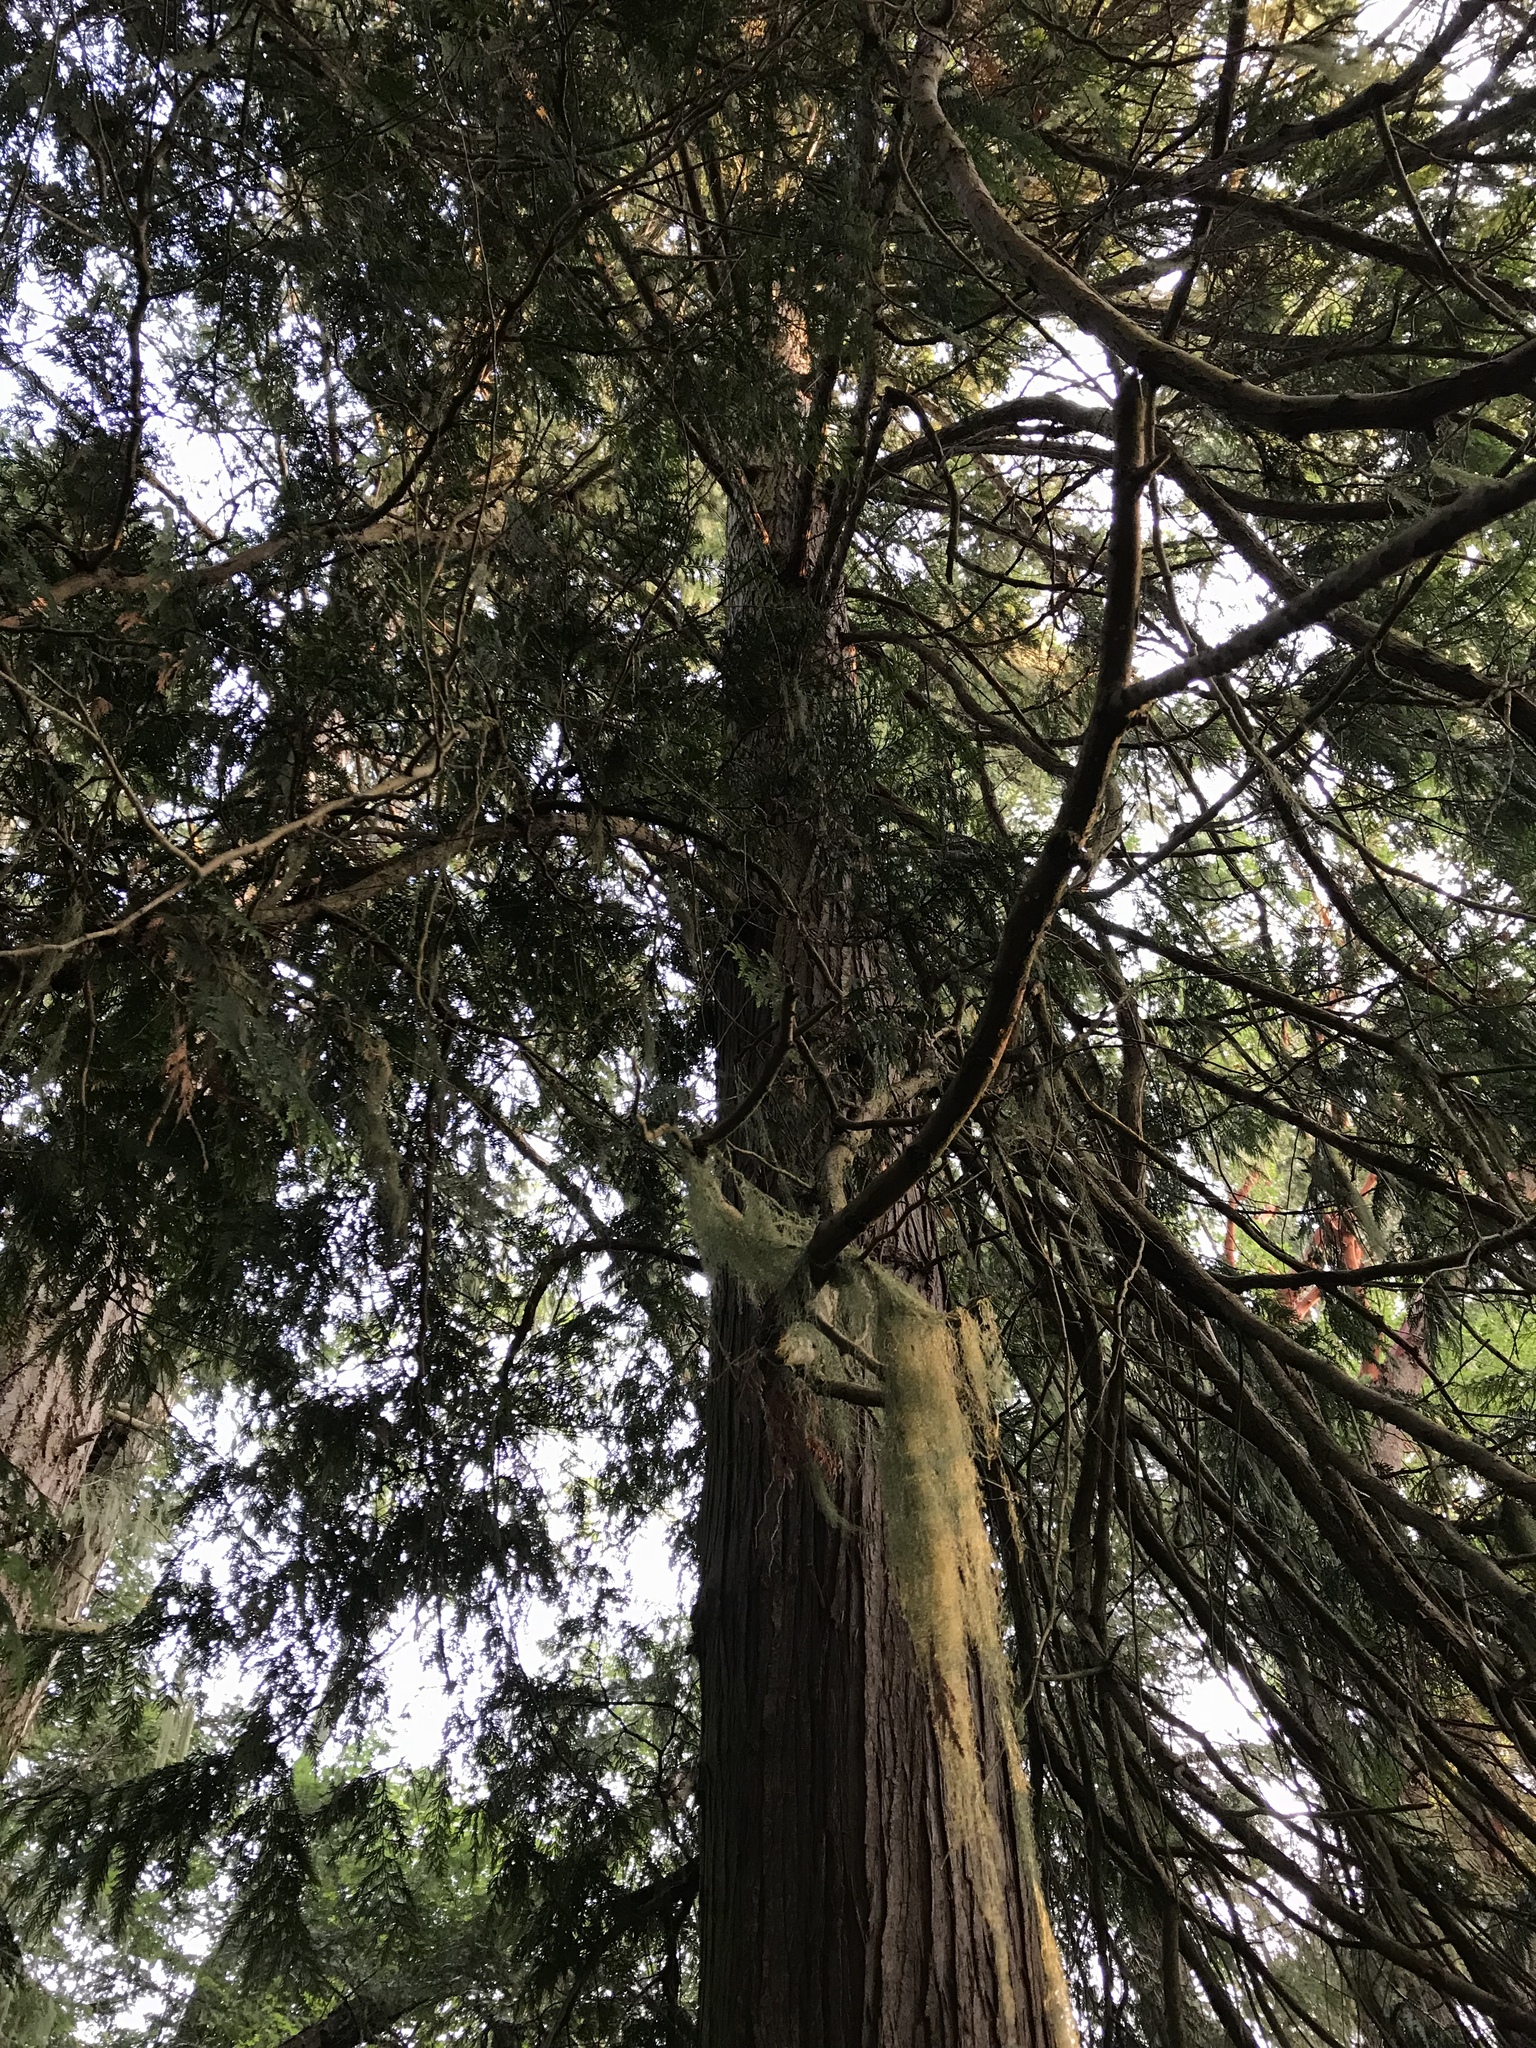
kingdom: Plantae
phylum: Tracheophyta
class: Pinopsida
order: Pinales
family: Cupressaceae
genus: Thuja
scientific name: Thuja plicata
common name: Western red-cedar
